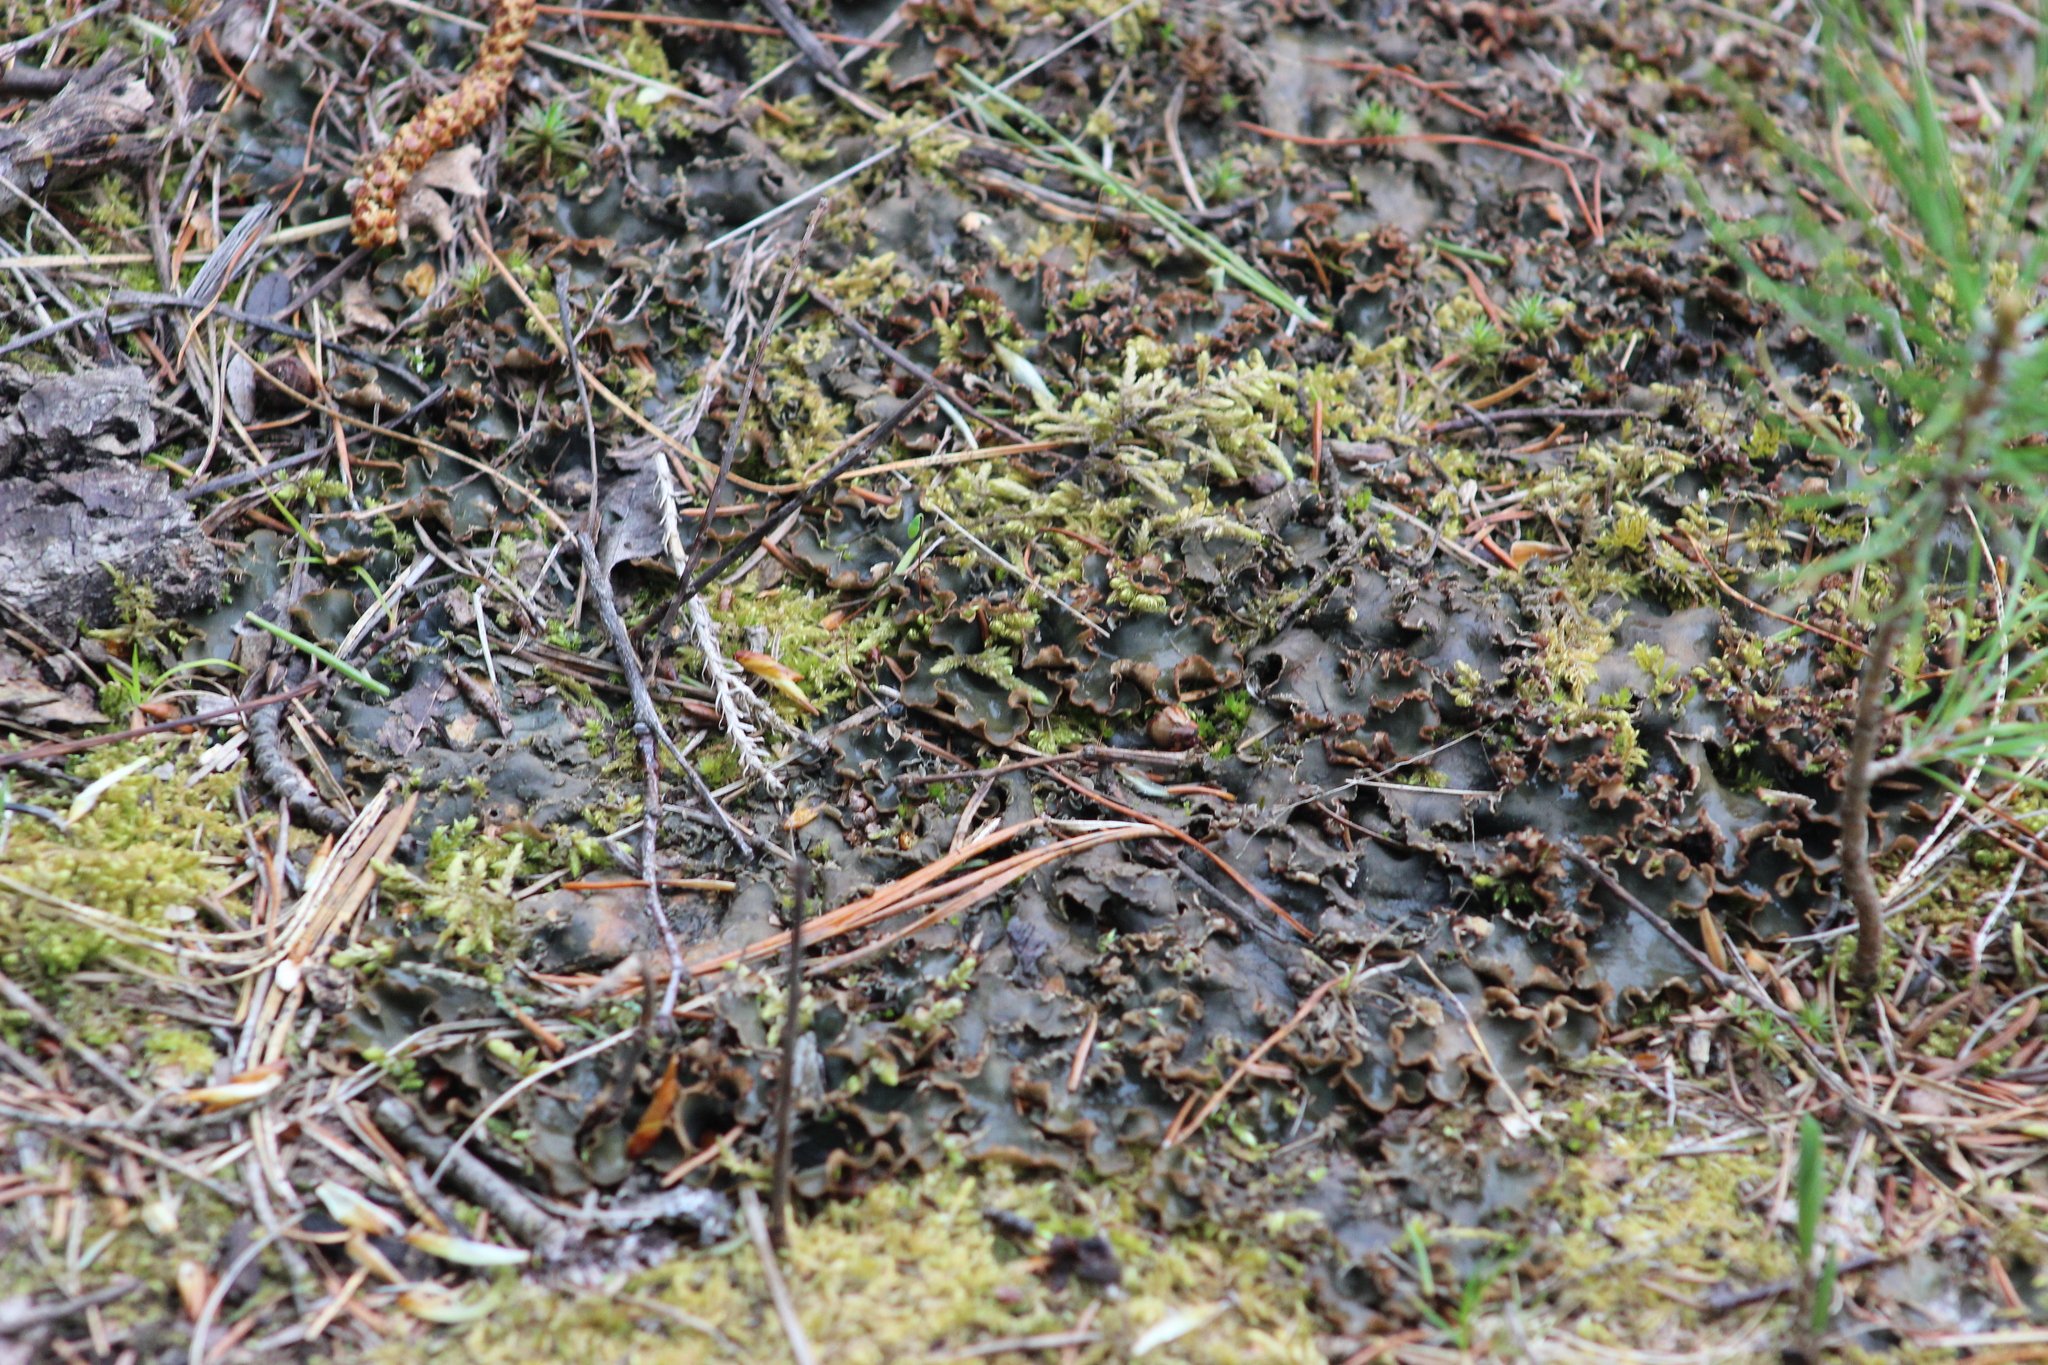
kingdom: Fungi
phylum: Ascomycota
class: Lecanoromycetes
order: Peltigerales
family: Peltigeraceae
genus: Peltigera
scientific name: Peltigera polydactylon
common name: Many-fruited pelt lichen
